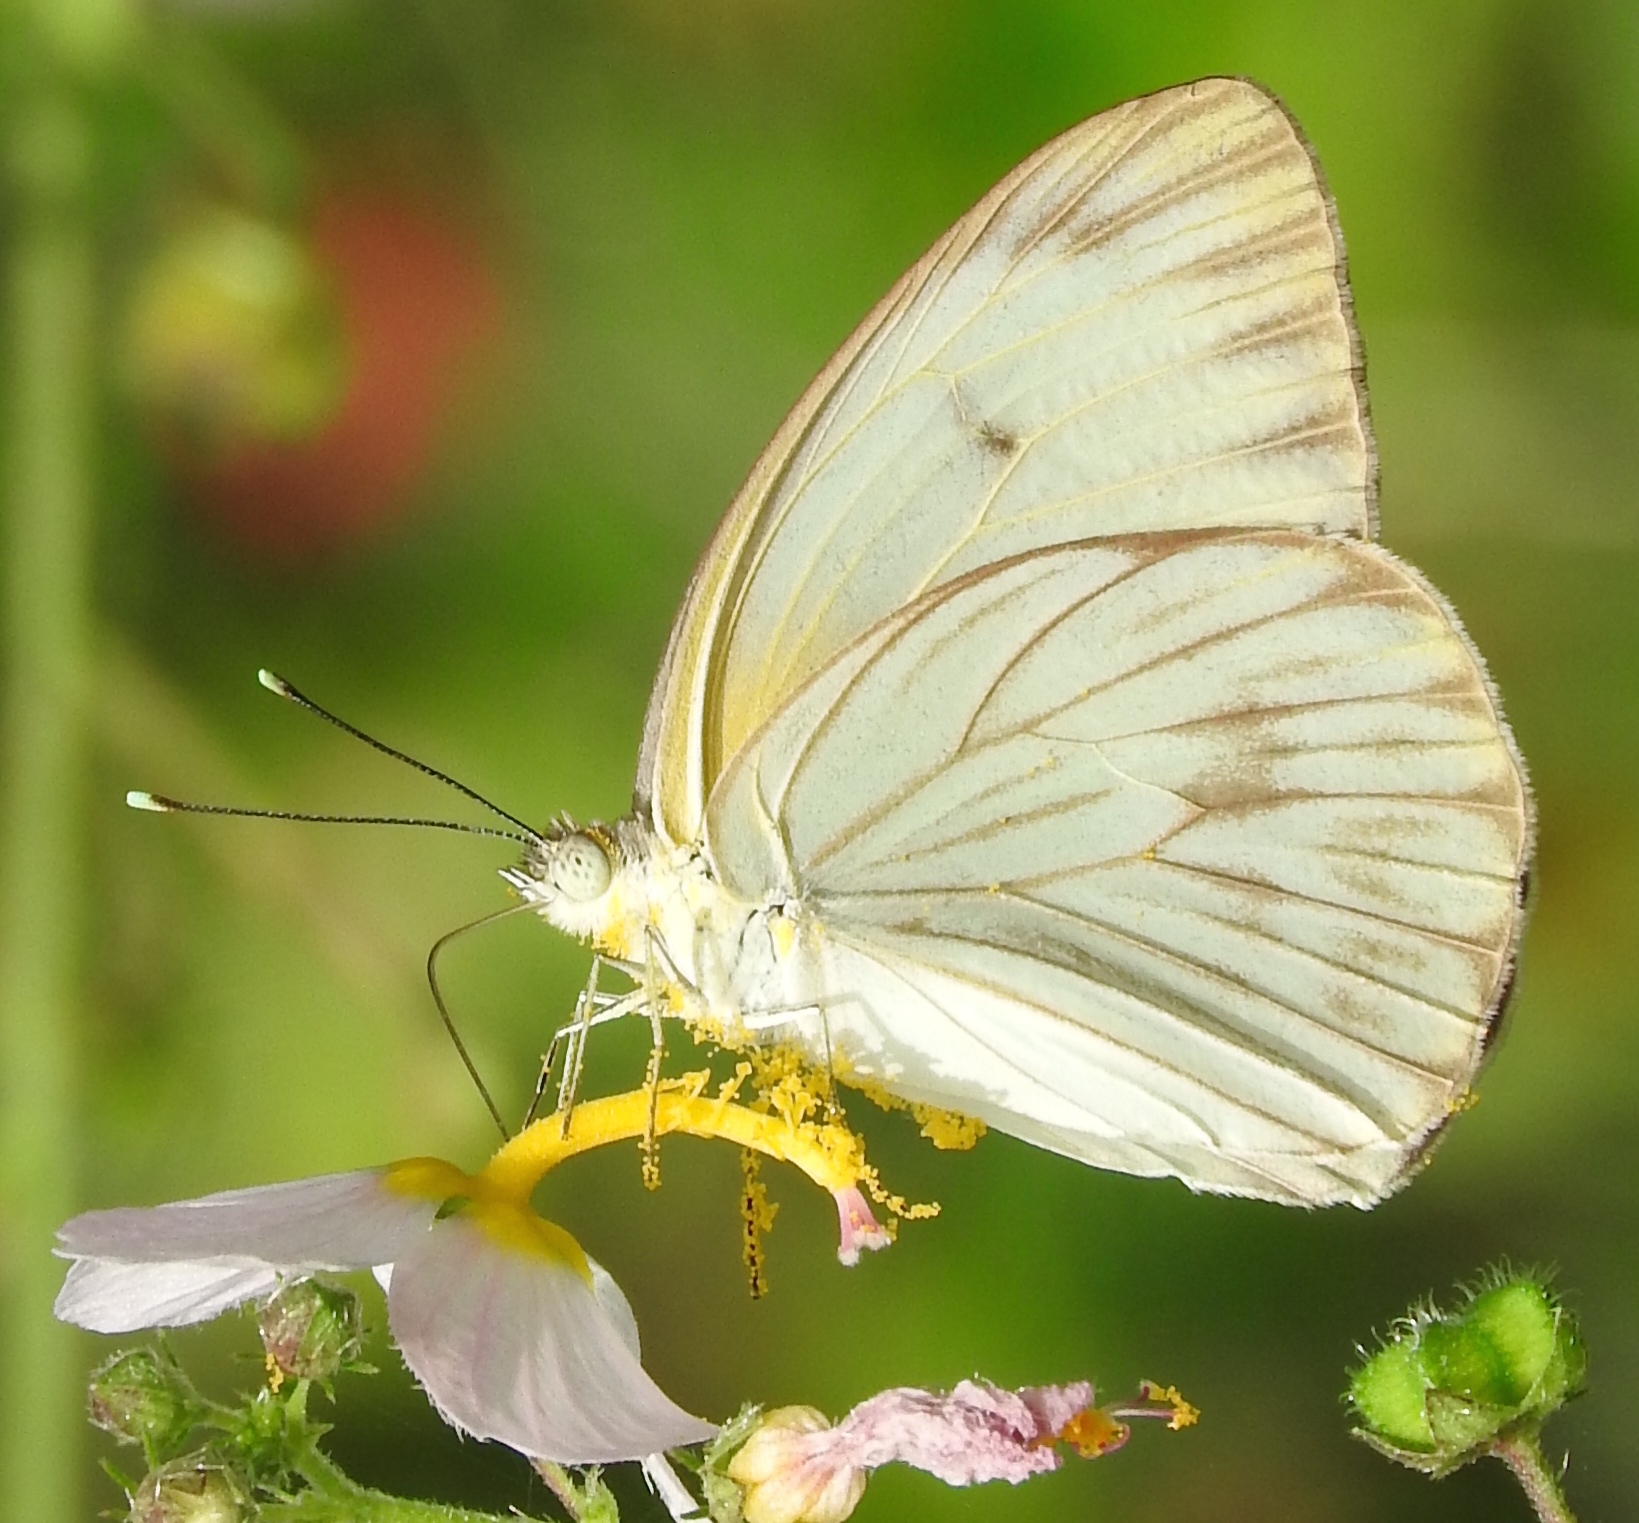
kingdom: Animalia
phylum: Arthropoda
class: Insecta
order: Lepidoptera
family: Pieridae
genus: Ascia
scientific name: Ascia monuste
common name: Great southern white
